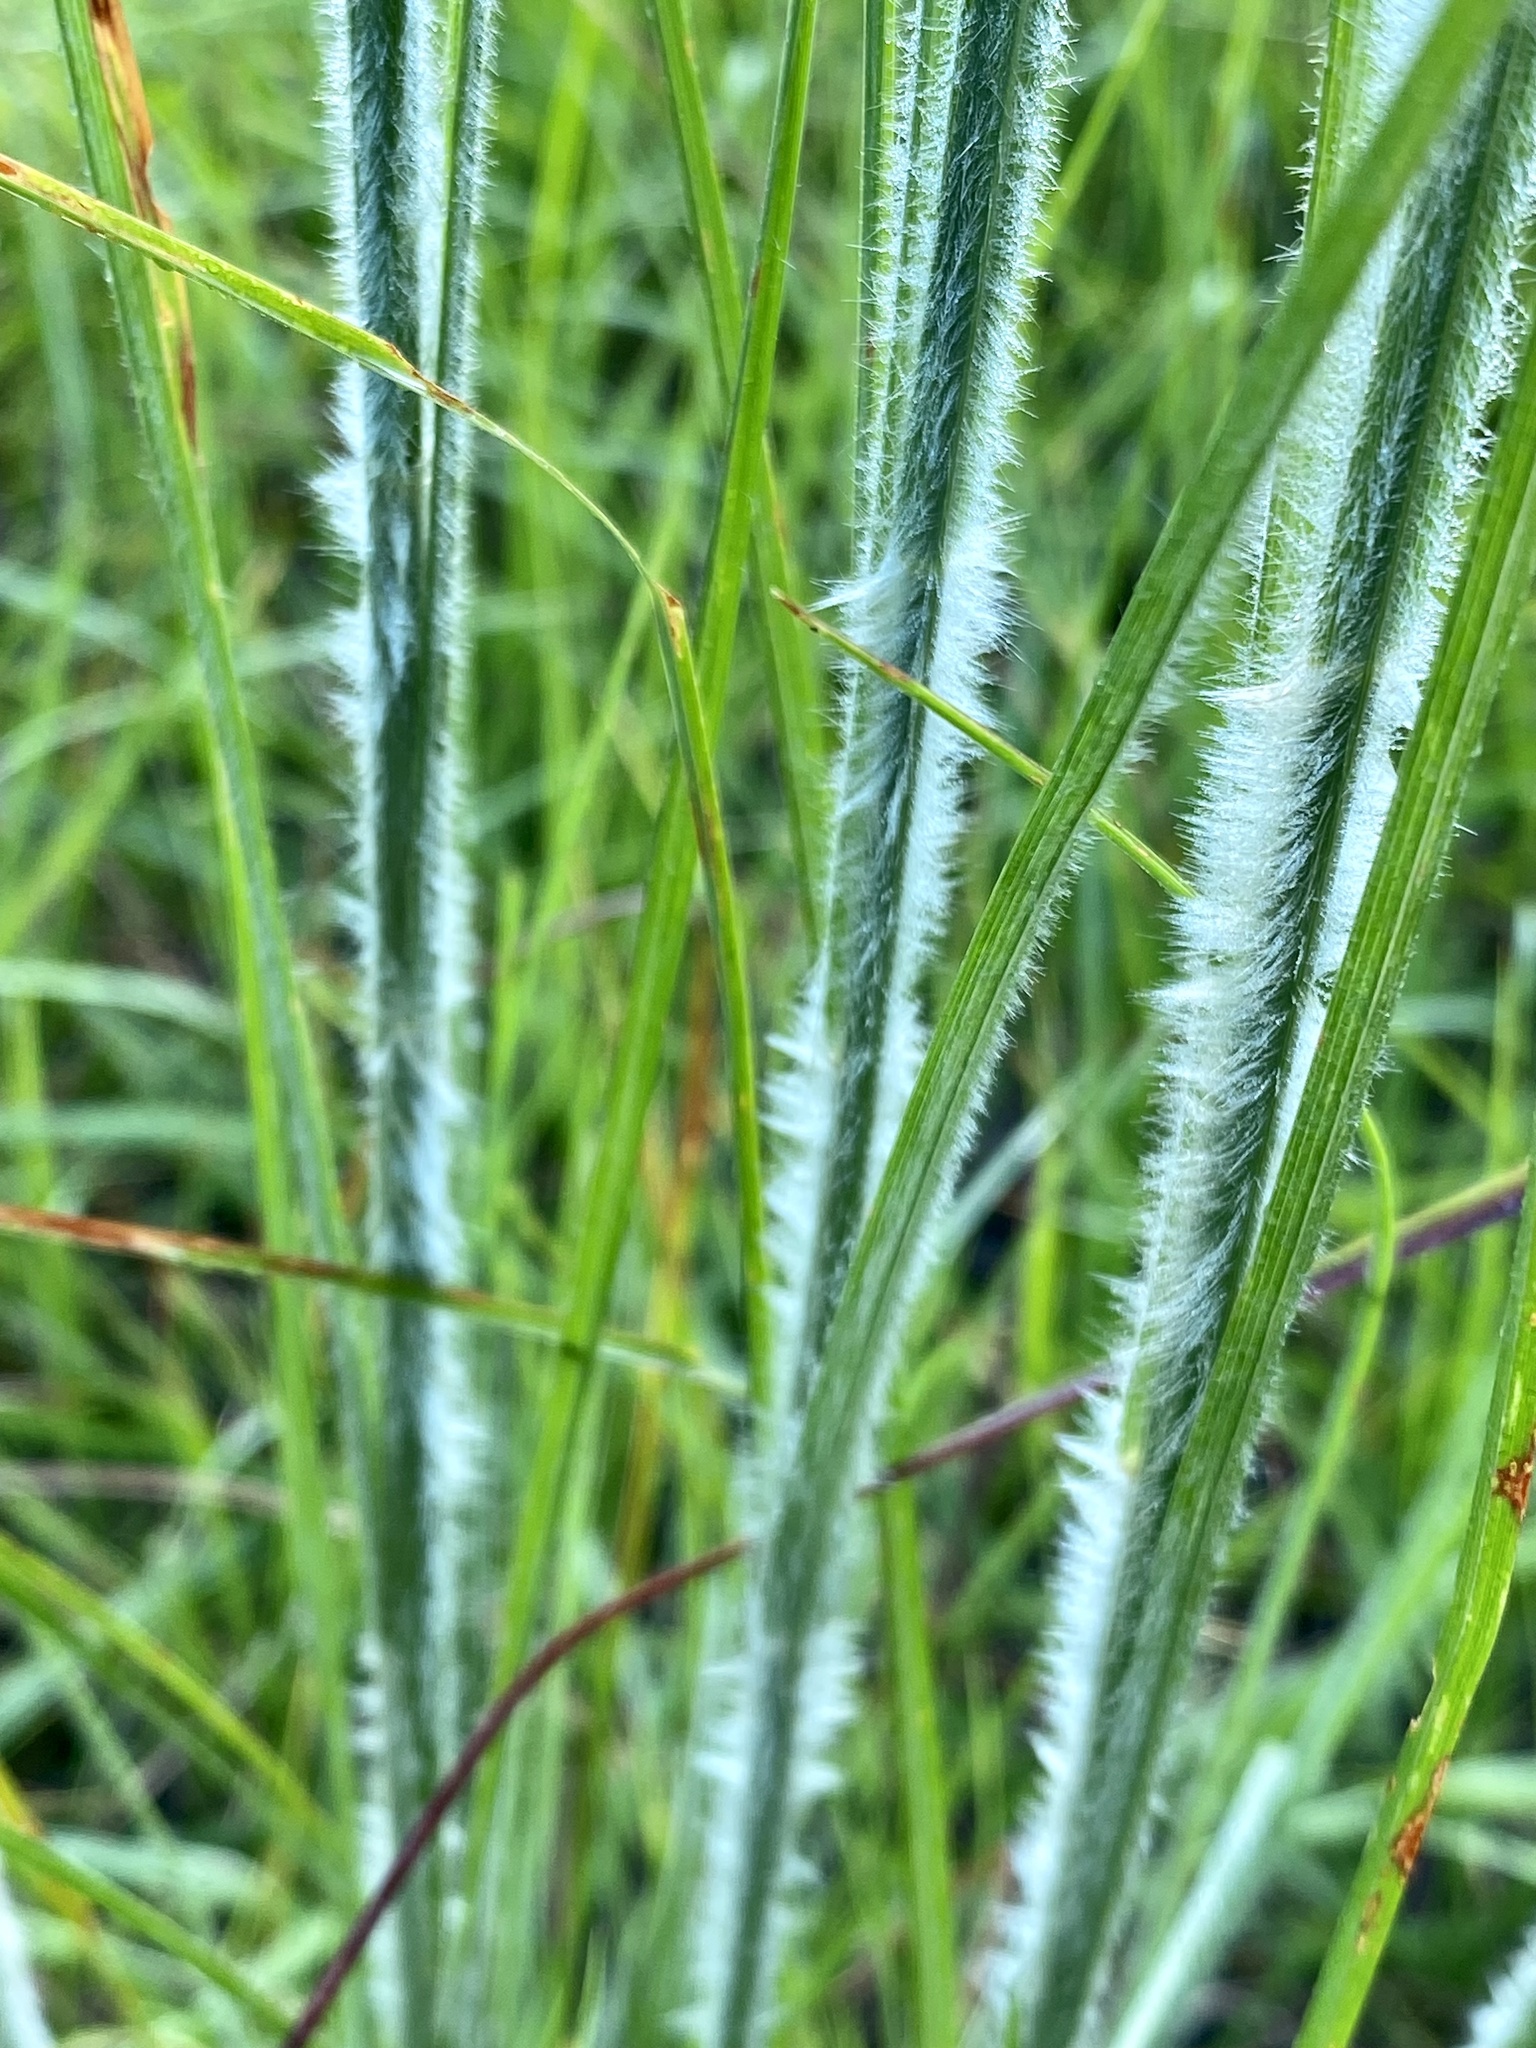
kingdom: Plantae
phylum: Tracheophyta
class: Liliopsida
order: Poales
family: Poaceae
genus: Andropogon
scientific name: Andropogon hirsutior
